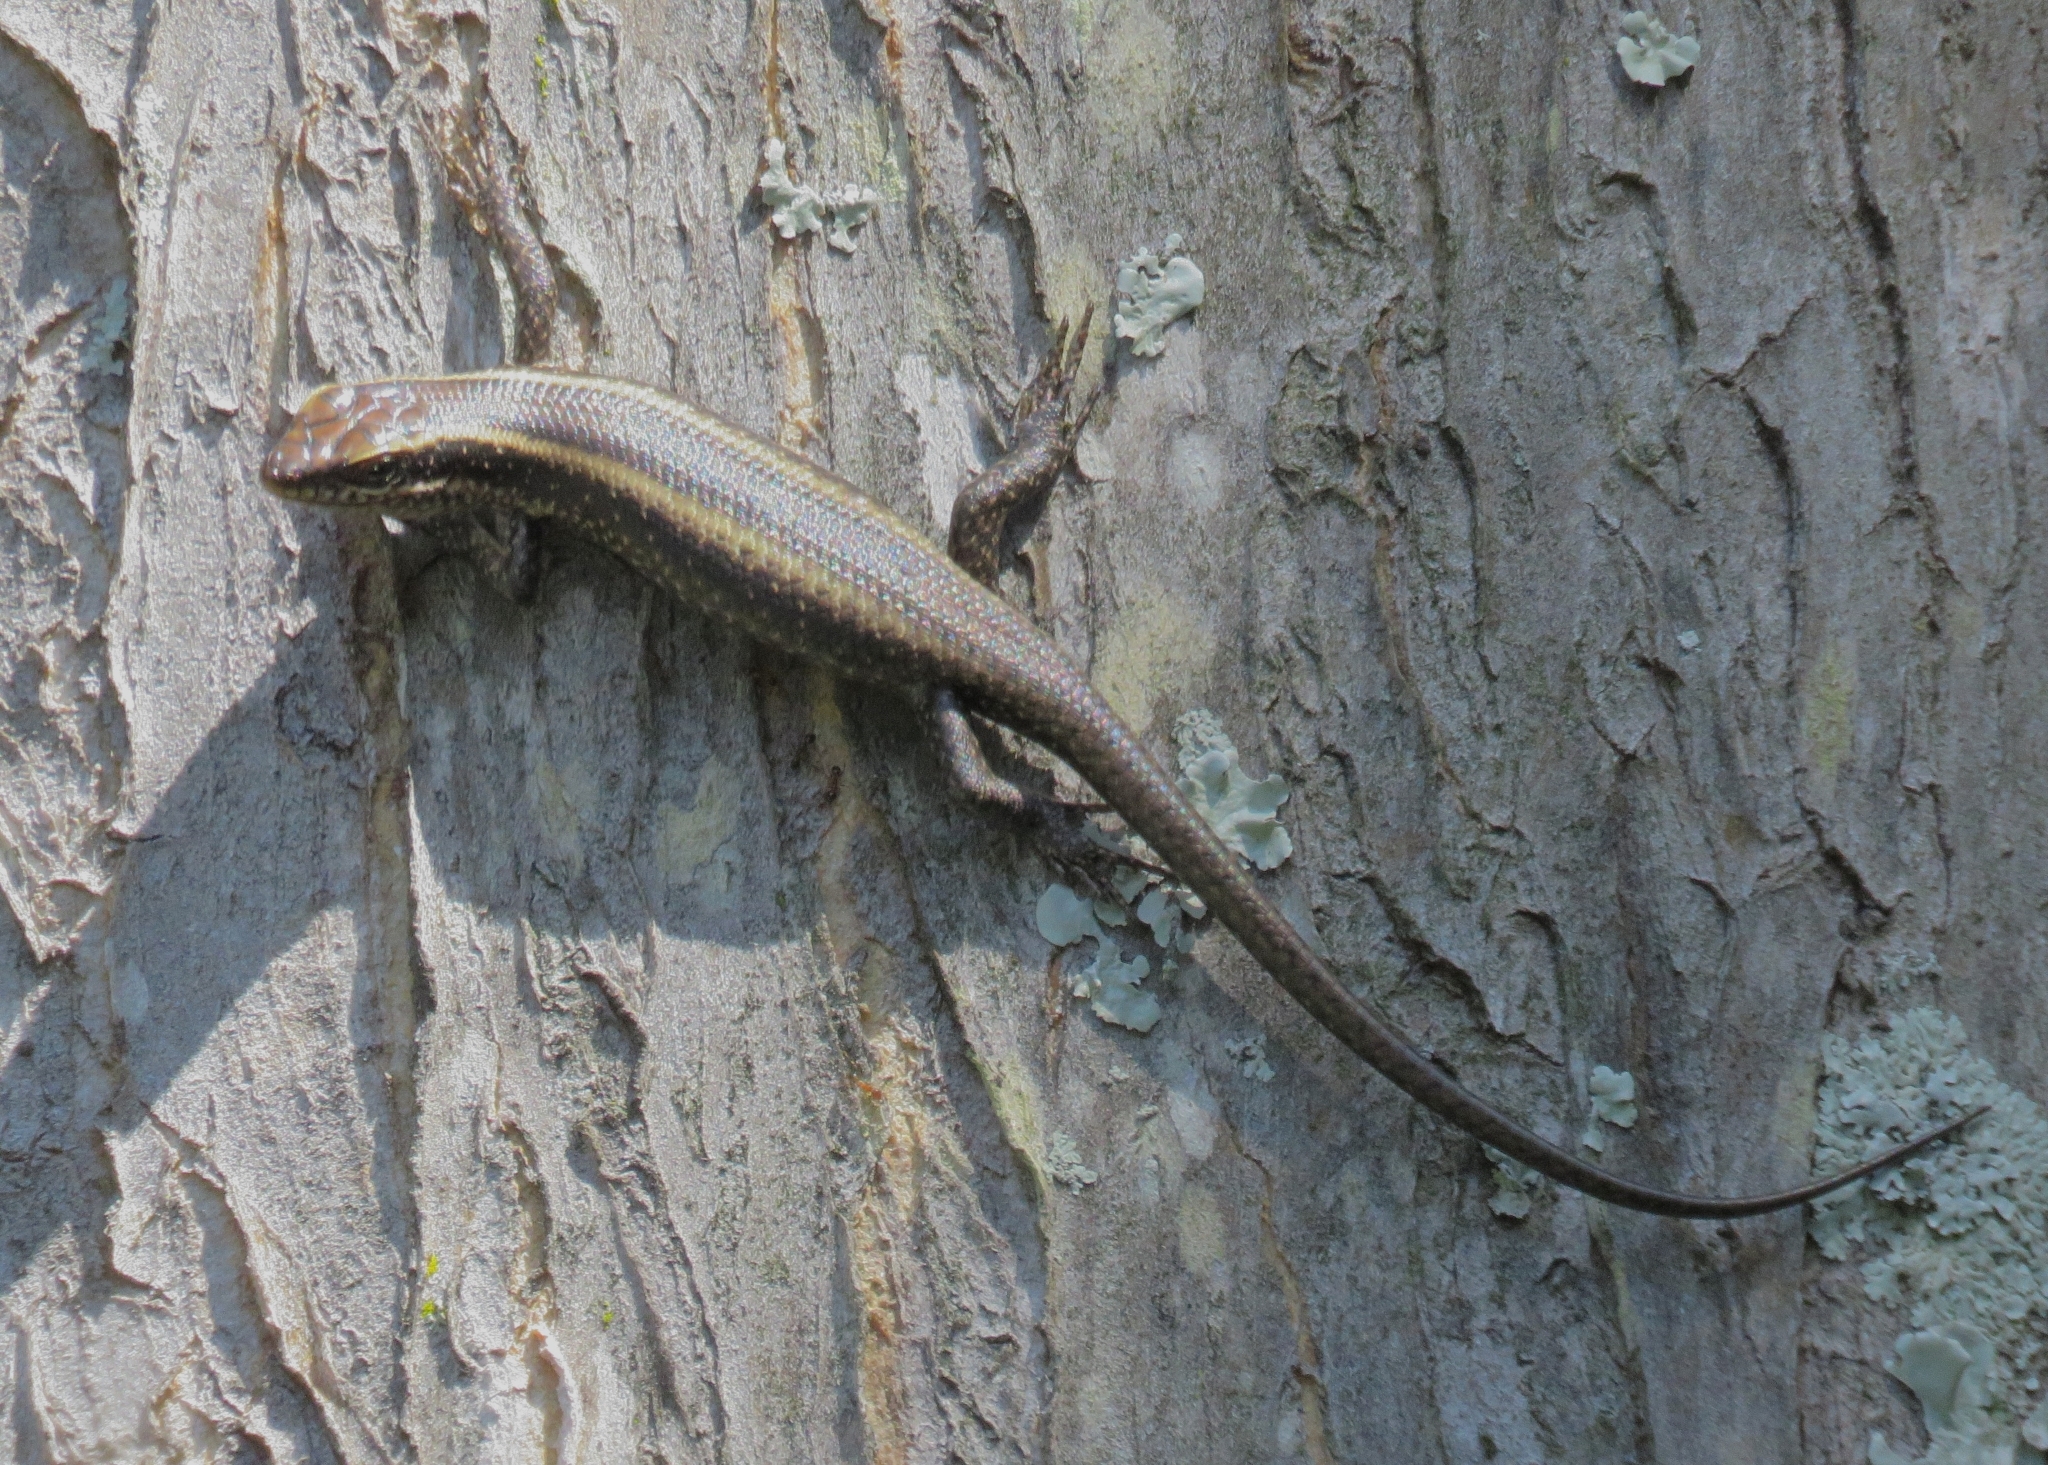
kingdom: Animalia
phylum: Chordata
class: Squamata
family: Scincidae
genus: Trachylepis
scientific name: Trachylepis striata
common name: African striped mabuya
